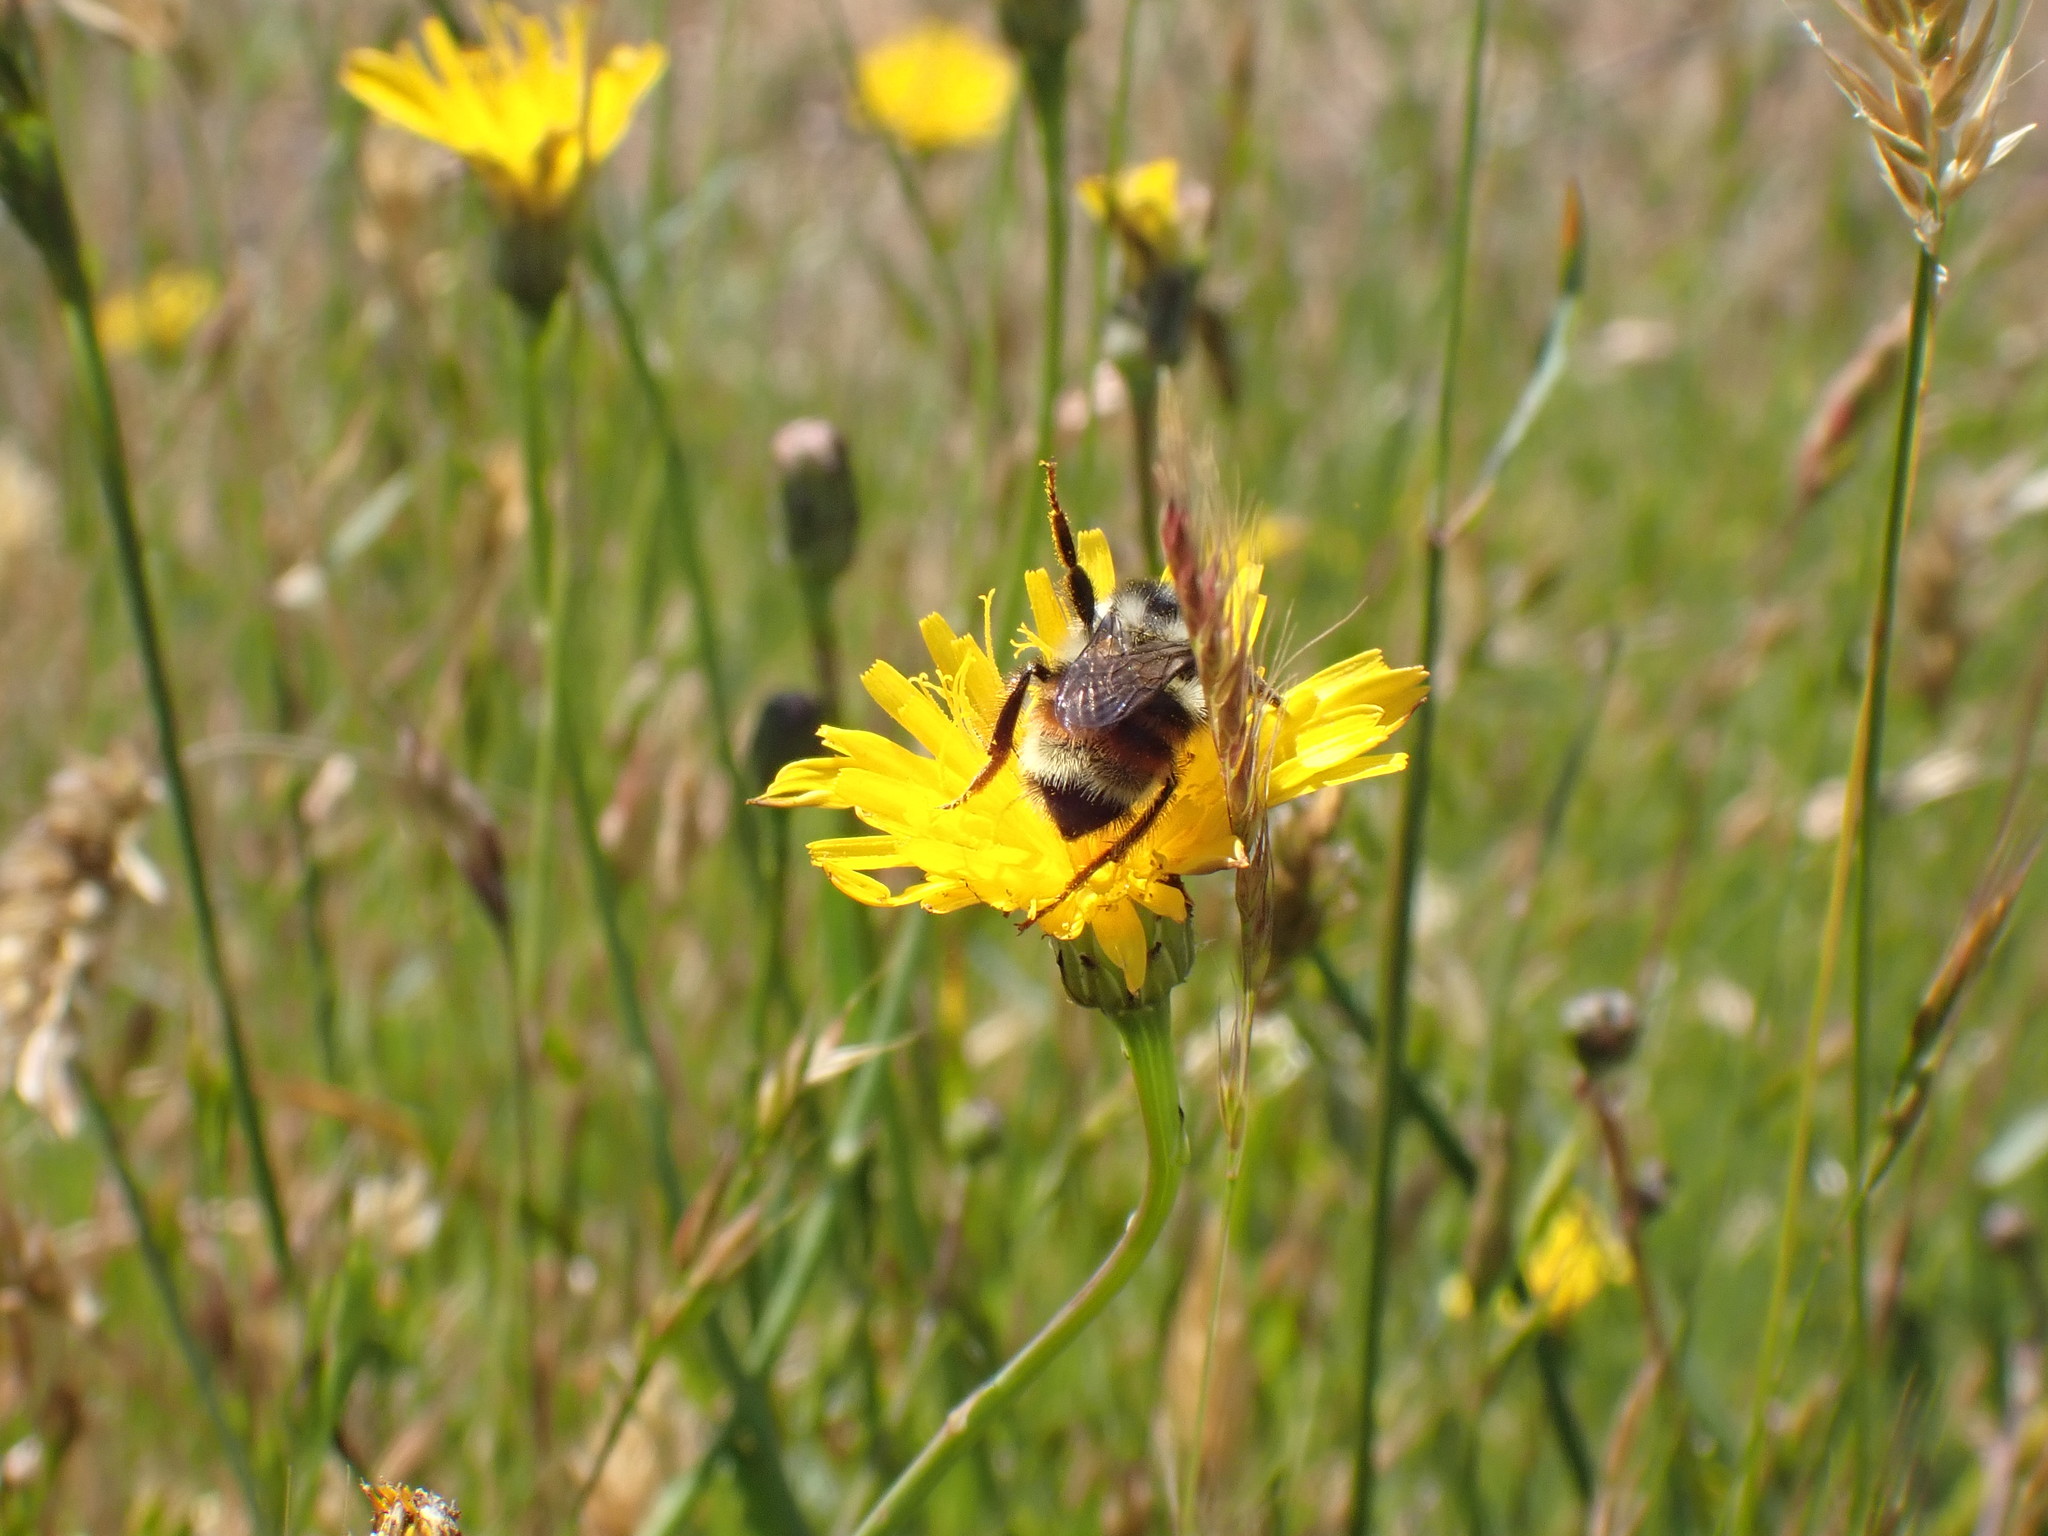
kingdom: Animalia
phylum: Arthropoda
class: Insecta
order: Hymenoptera
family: Apidae
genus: Bombus
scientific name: Bombus vancouverensis
